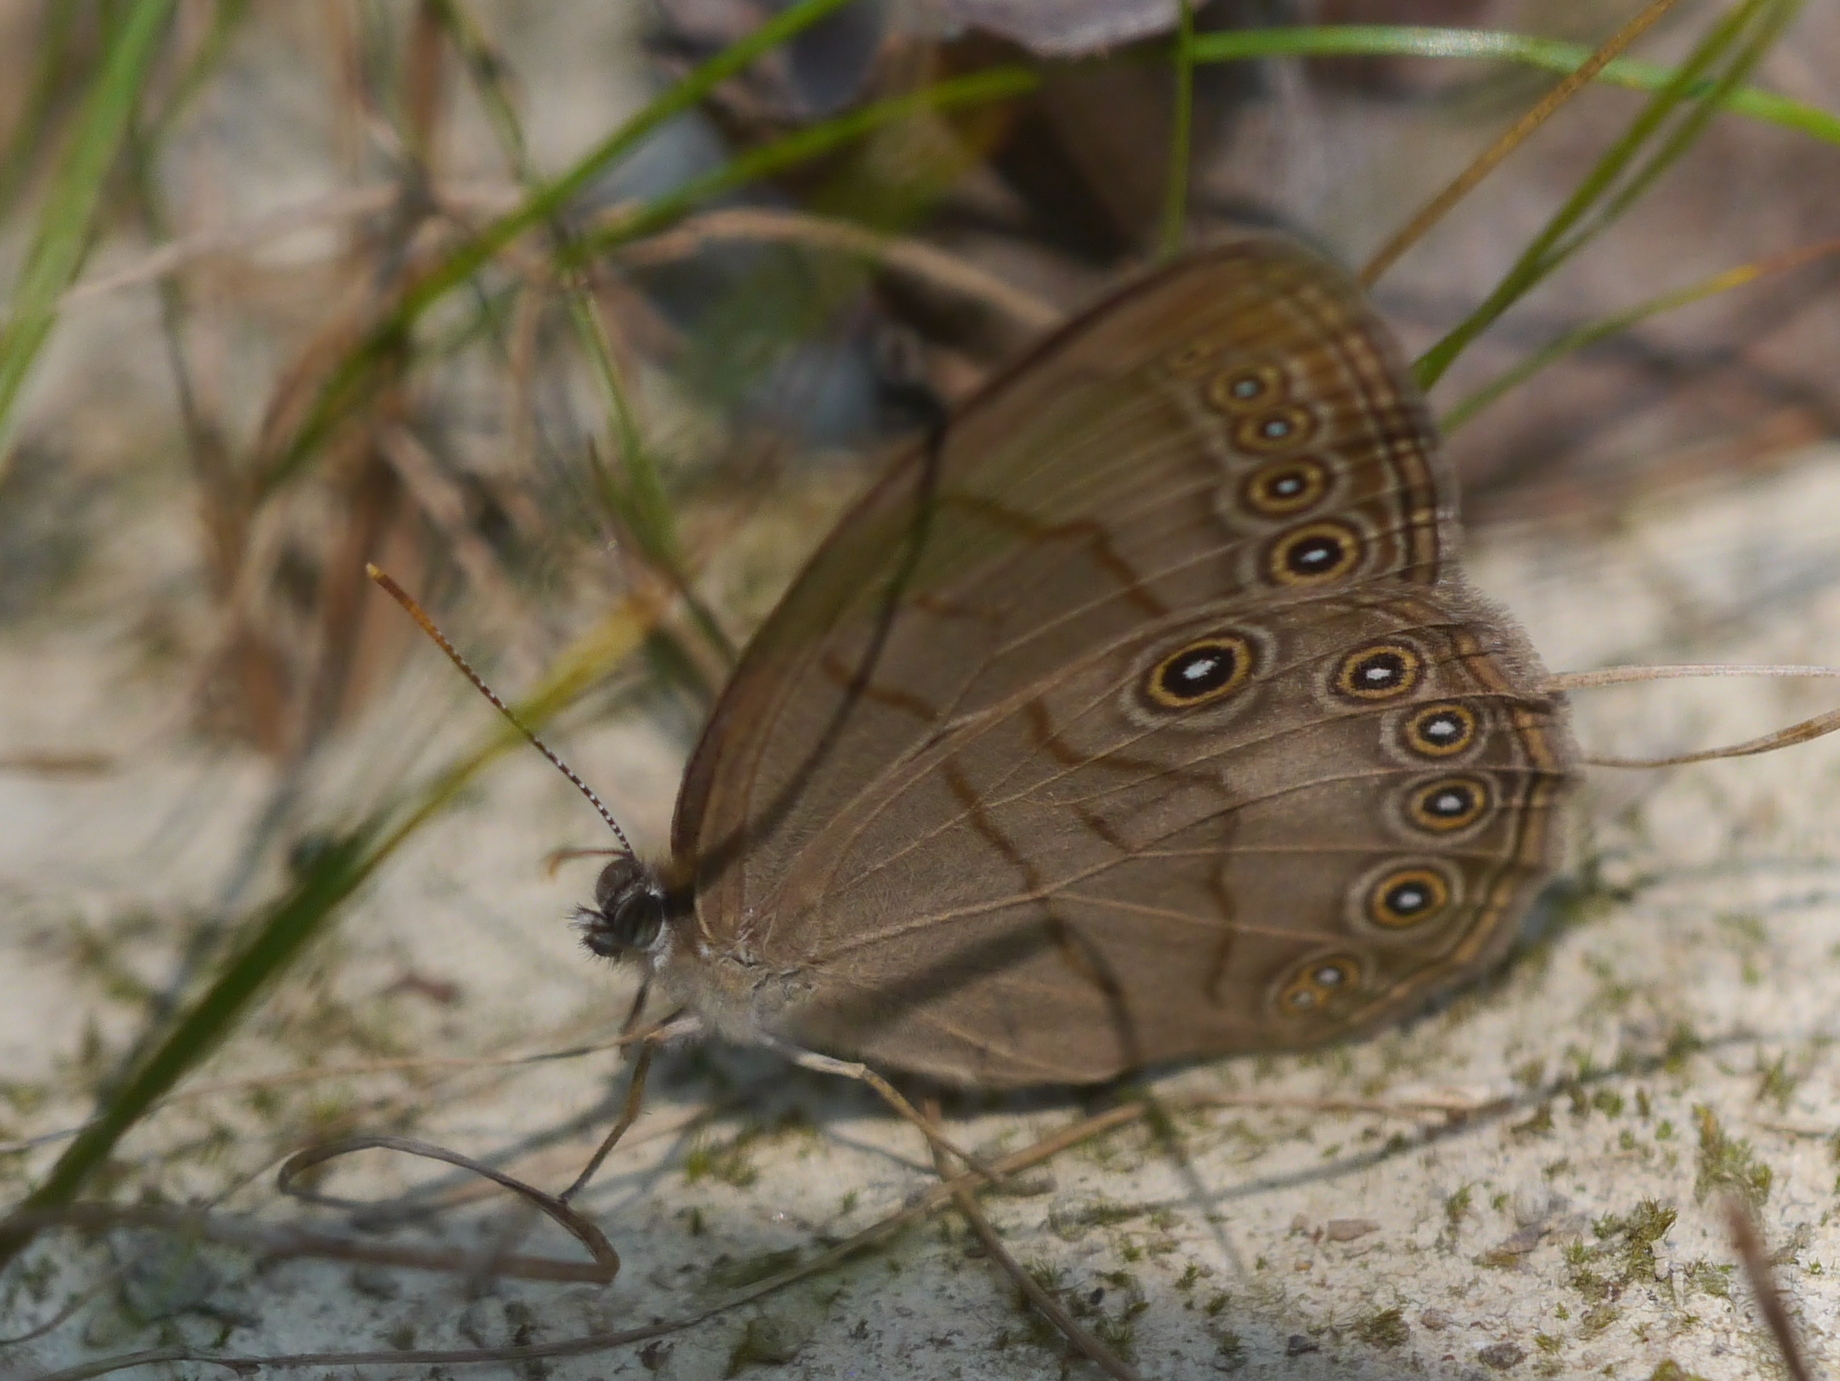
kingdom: Animalia
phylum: Arthropoda
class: Insecta
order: Lepidoptera
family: Nymphalidae
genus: Lethe
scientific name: Lethe eurydice
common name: Eyed brown
